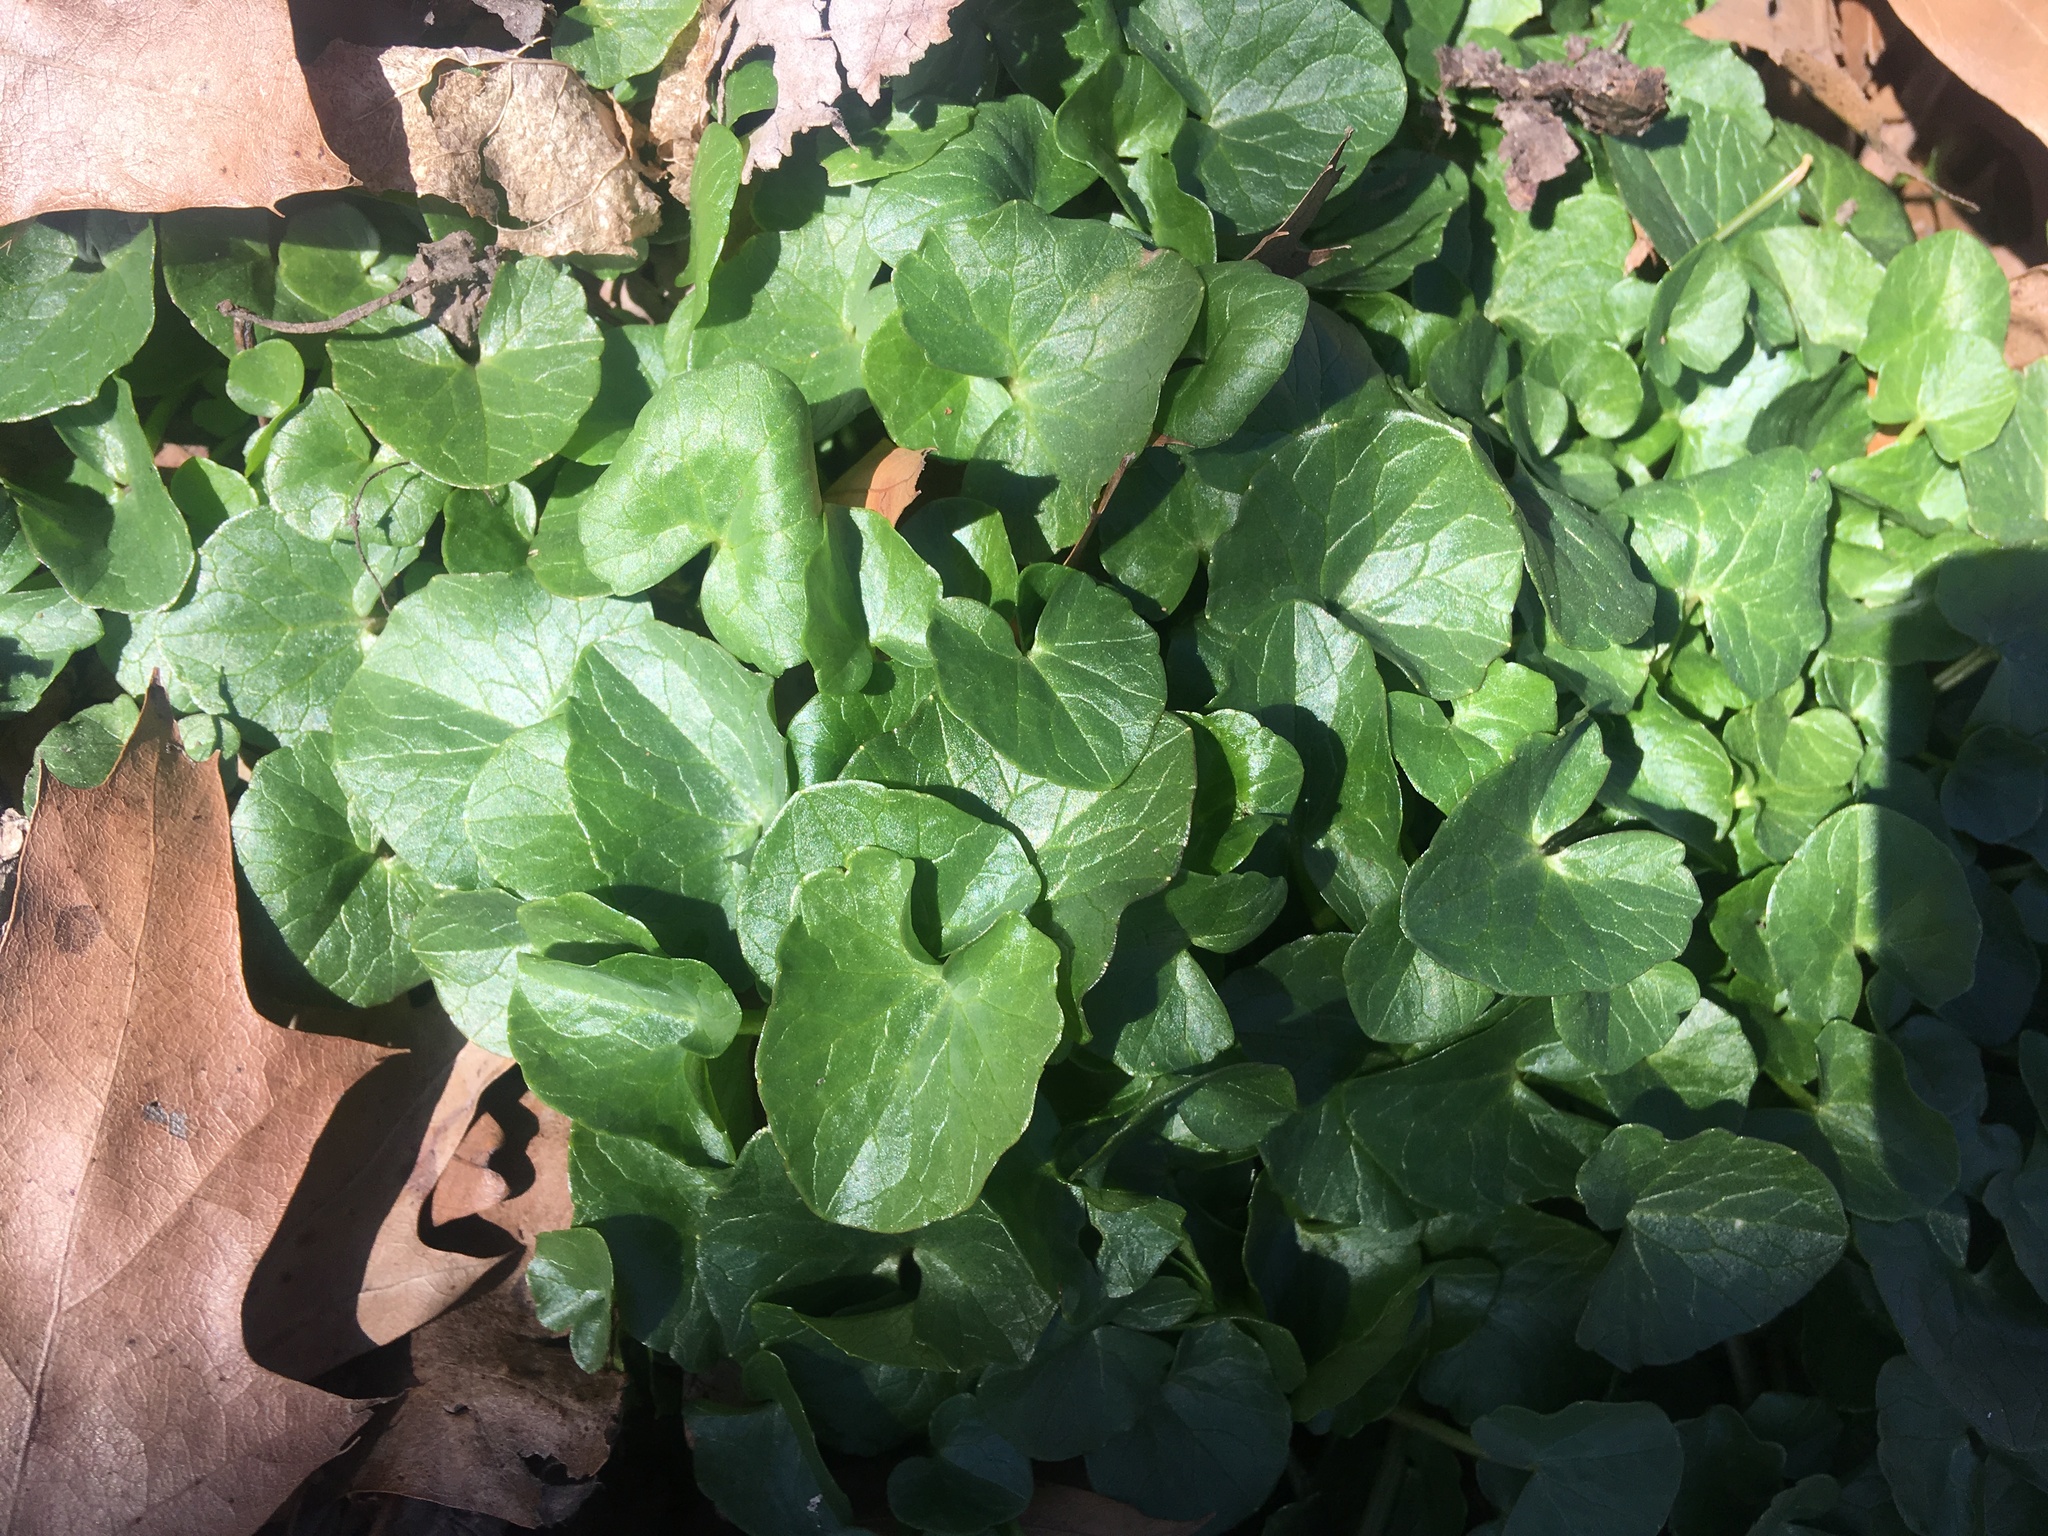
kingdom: Plantae
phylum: Tracheophyta
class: Magnoliopsida
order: Ranunculales
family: Ranunculaceae
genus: Ficaria
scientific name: Ficaria verna
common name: Lesser celandine
